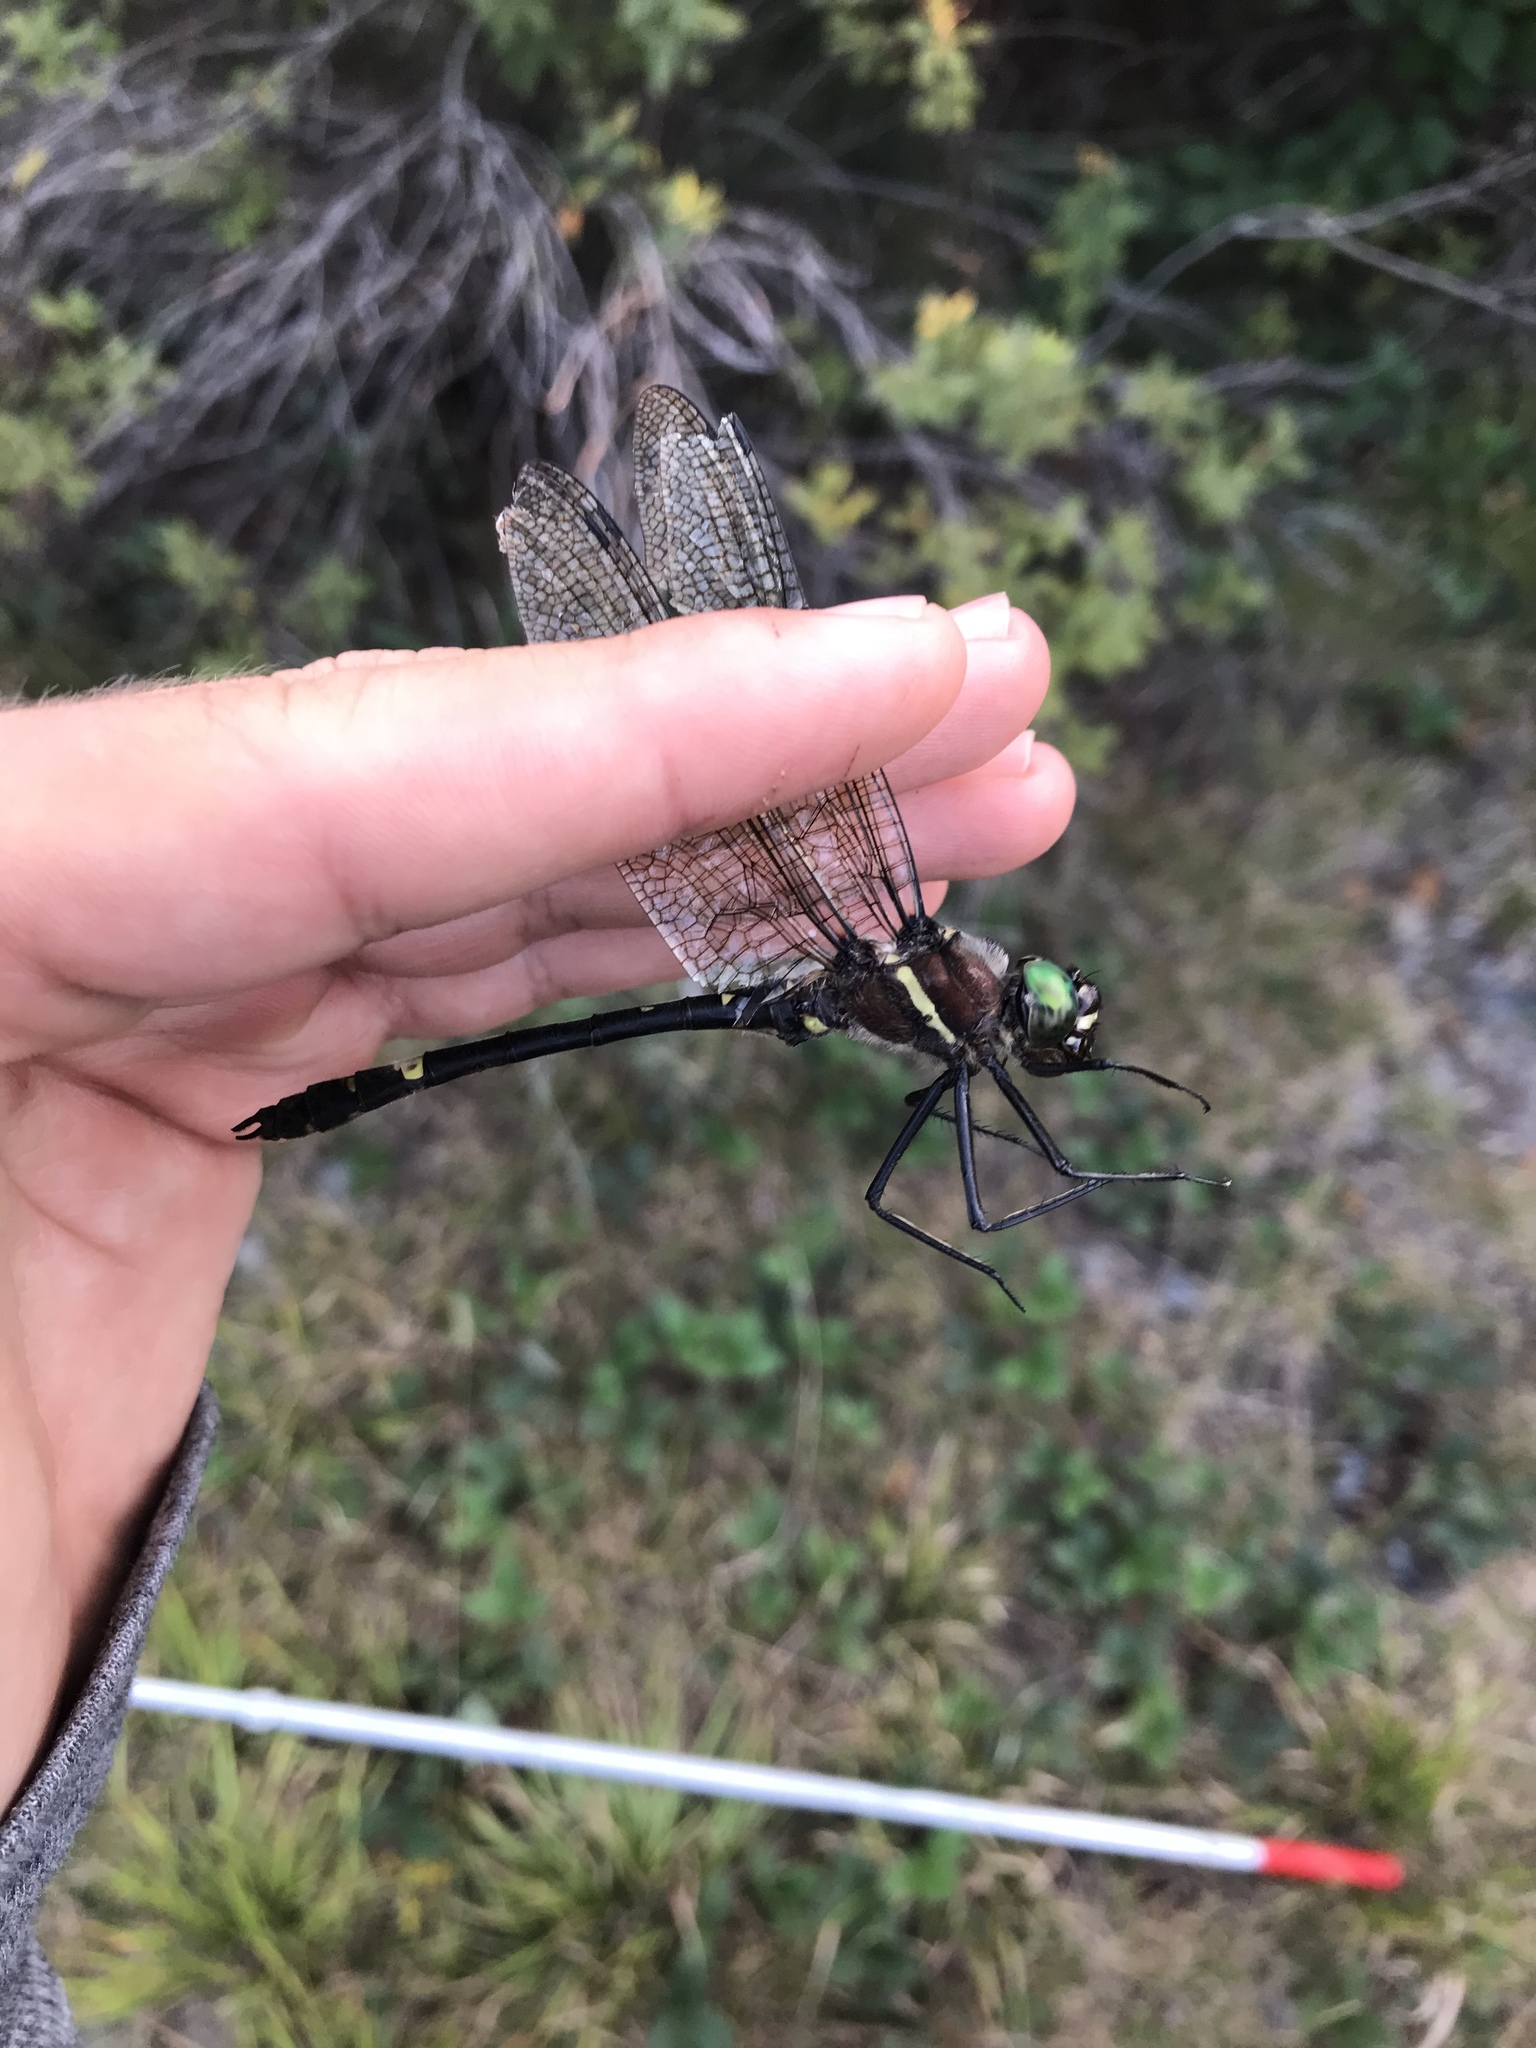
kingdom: Animalia
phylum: Arthropoda
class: Insecta
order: Odonata
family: Macromiidae
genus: Macromia
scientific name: Macromia illinoiensis
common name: Swift river cruiser
